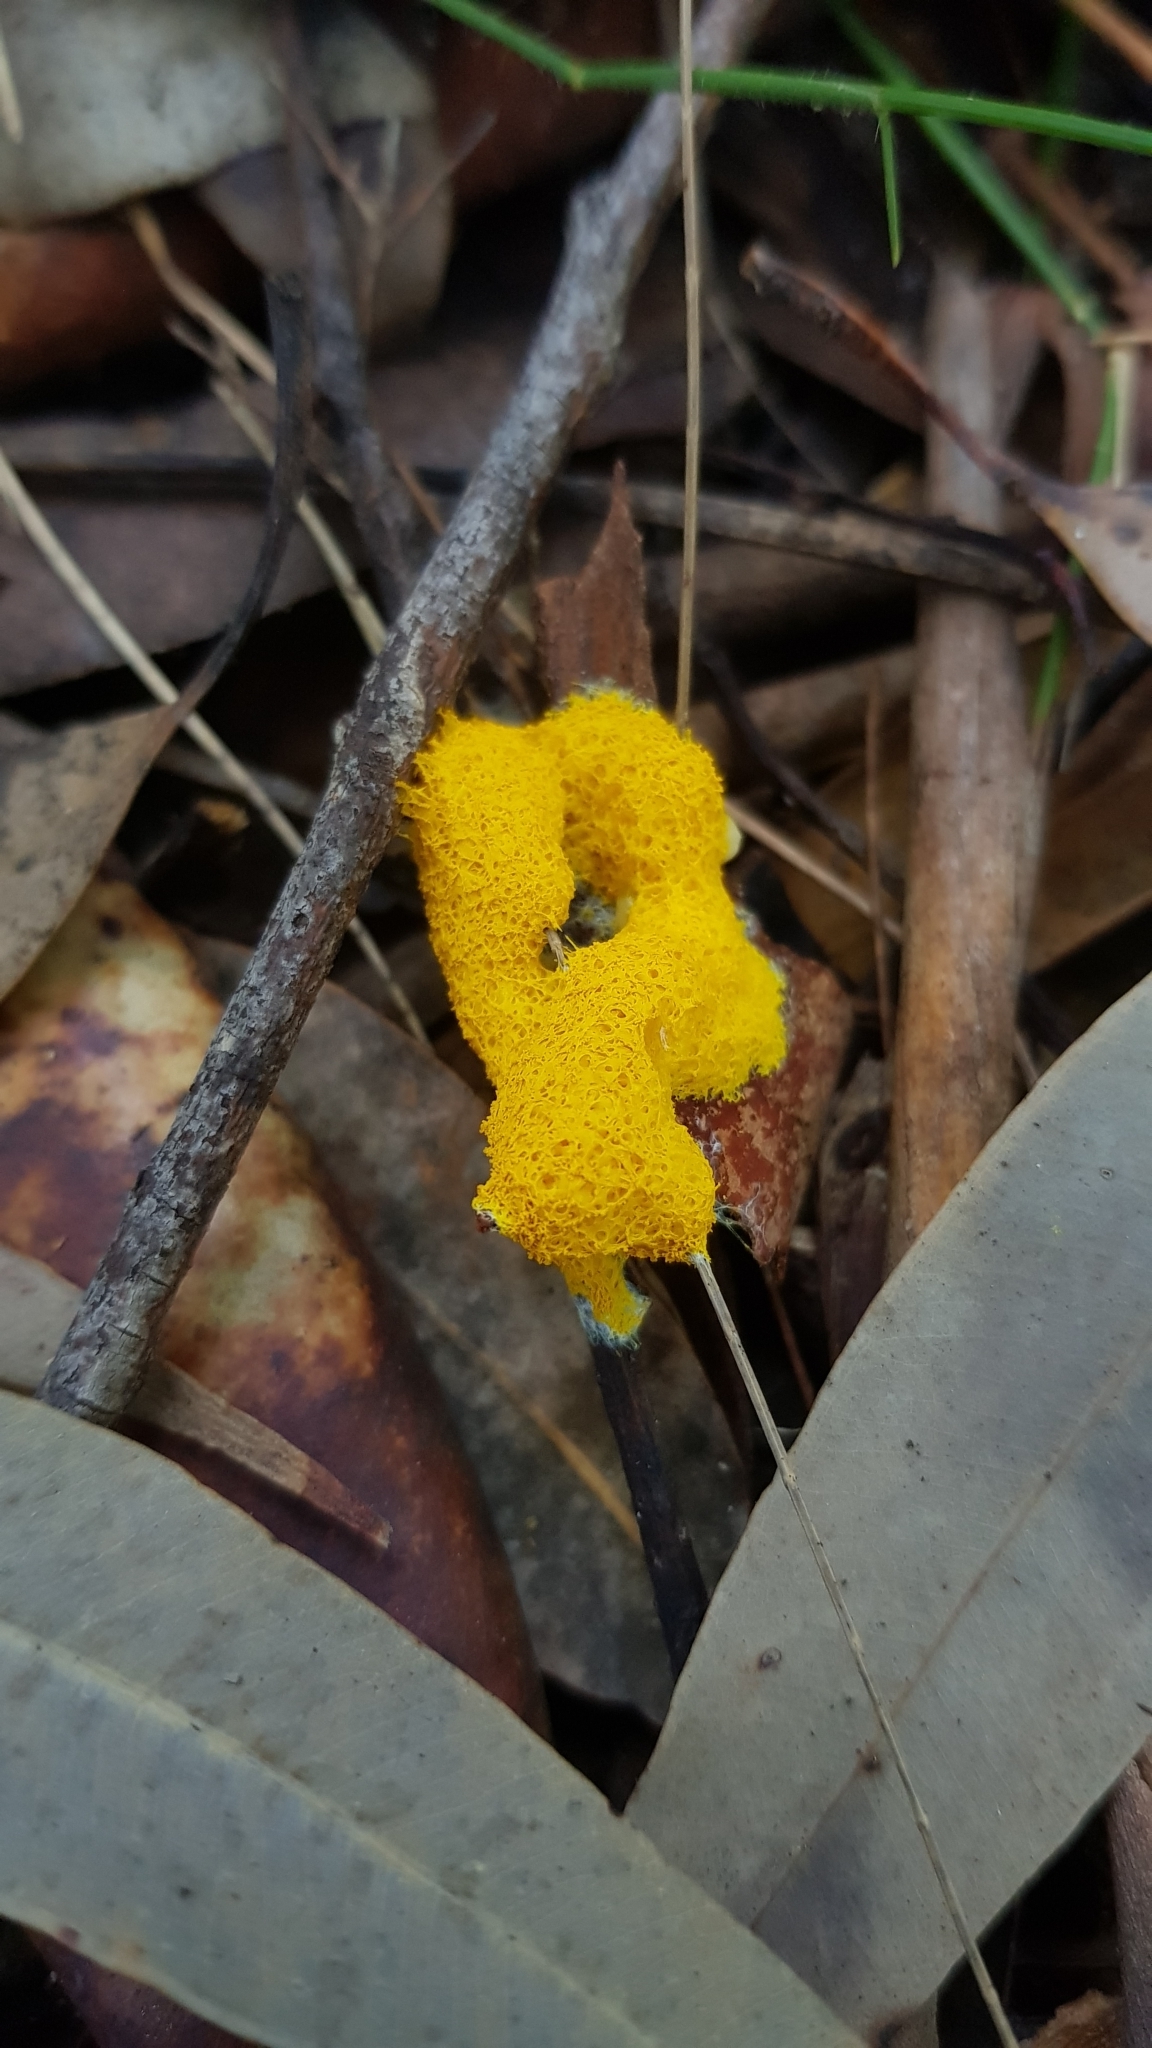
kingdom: Protozoa
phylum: Mycetozoa
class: Myxomycetes
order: Physarales
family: Physaraceae
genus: Fuligo
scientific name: Fuligo septica
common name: Dog vomit slime mold
